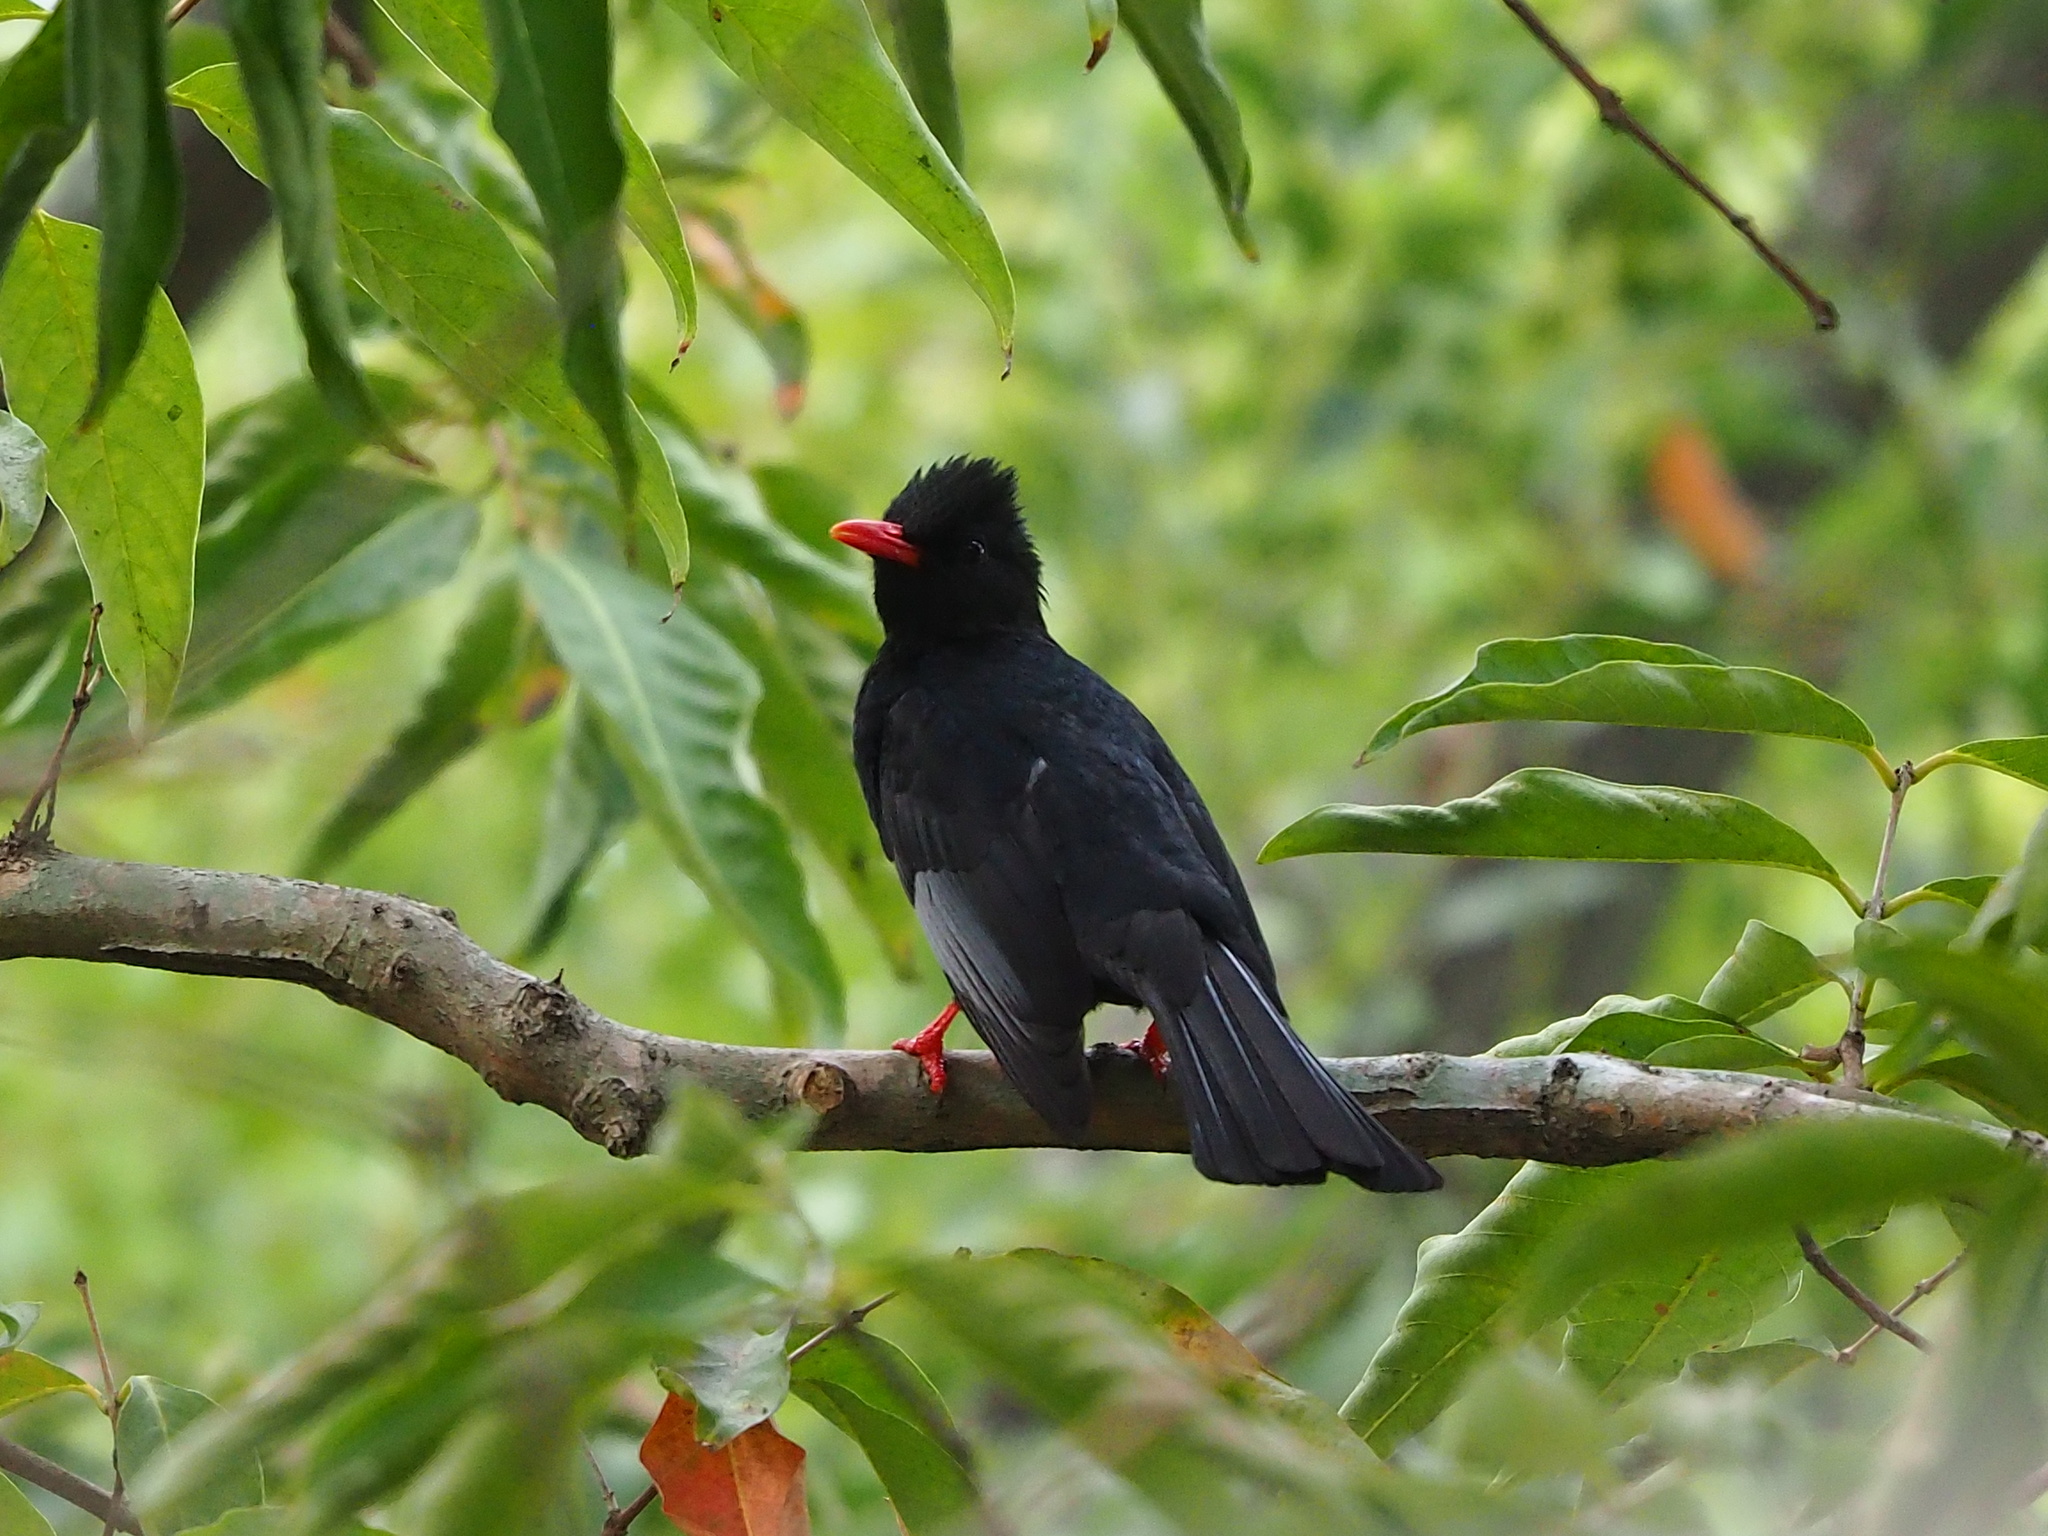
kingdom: Animalia
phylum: Chordata
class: Aves
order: Passeriformes
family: Pycnonotidae
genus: Hypsipetes
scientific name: Hypsipetes leucocephalus
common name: Black bulbul
